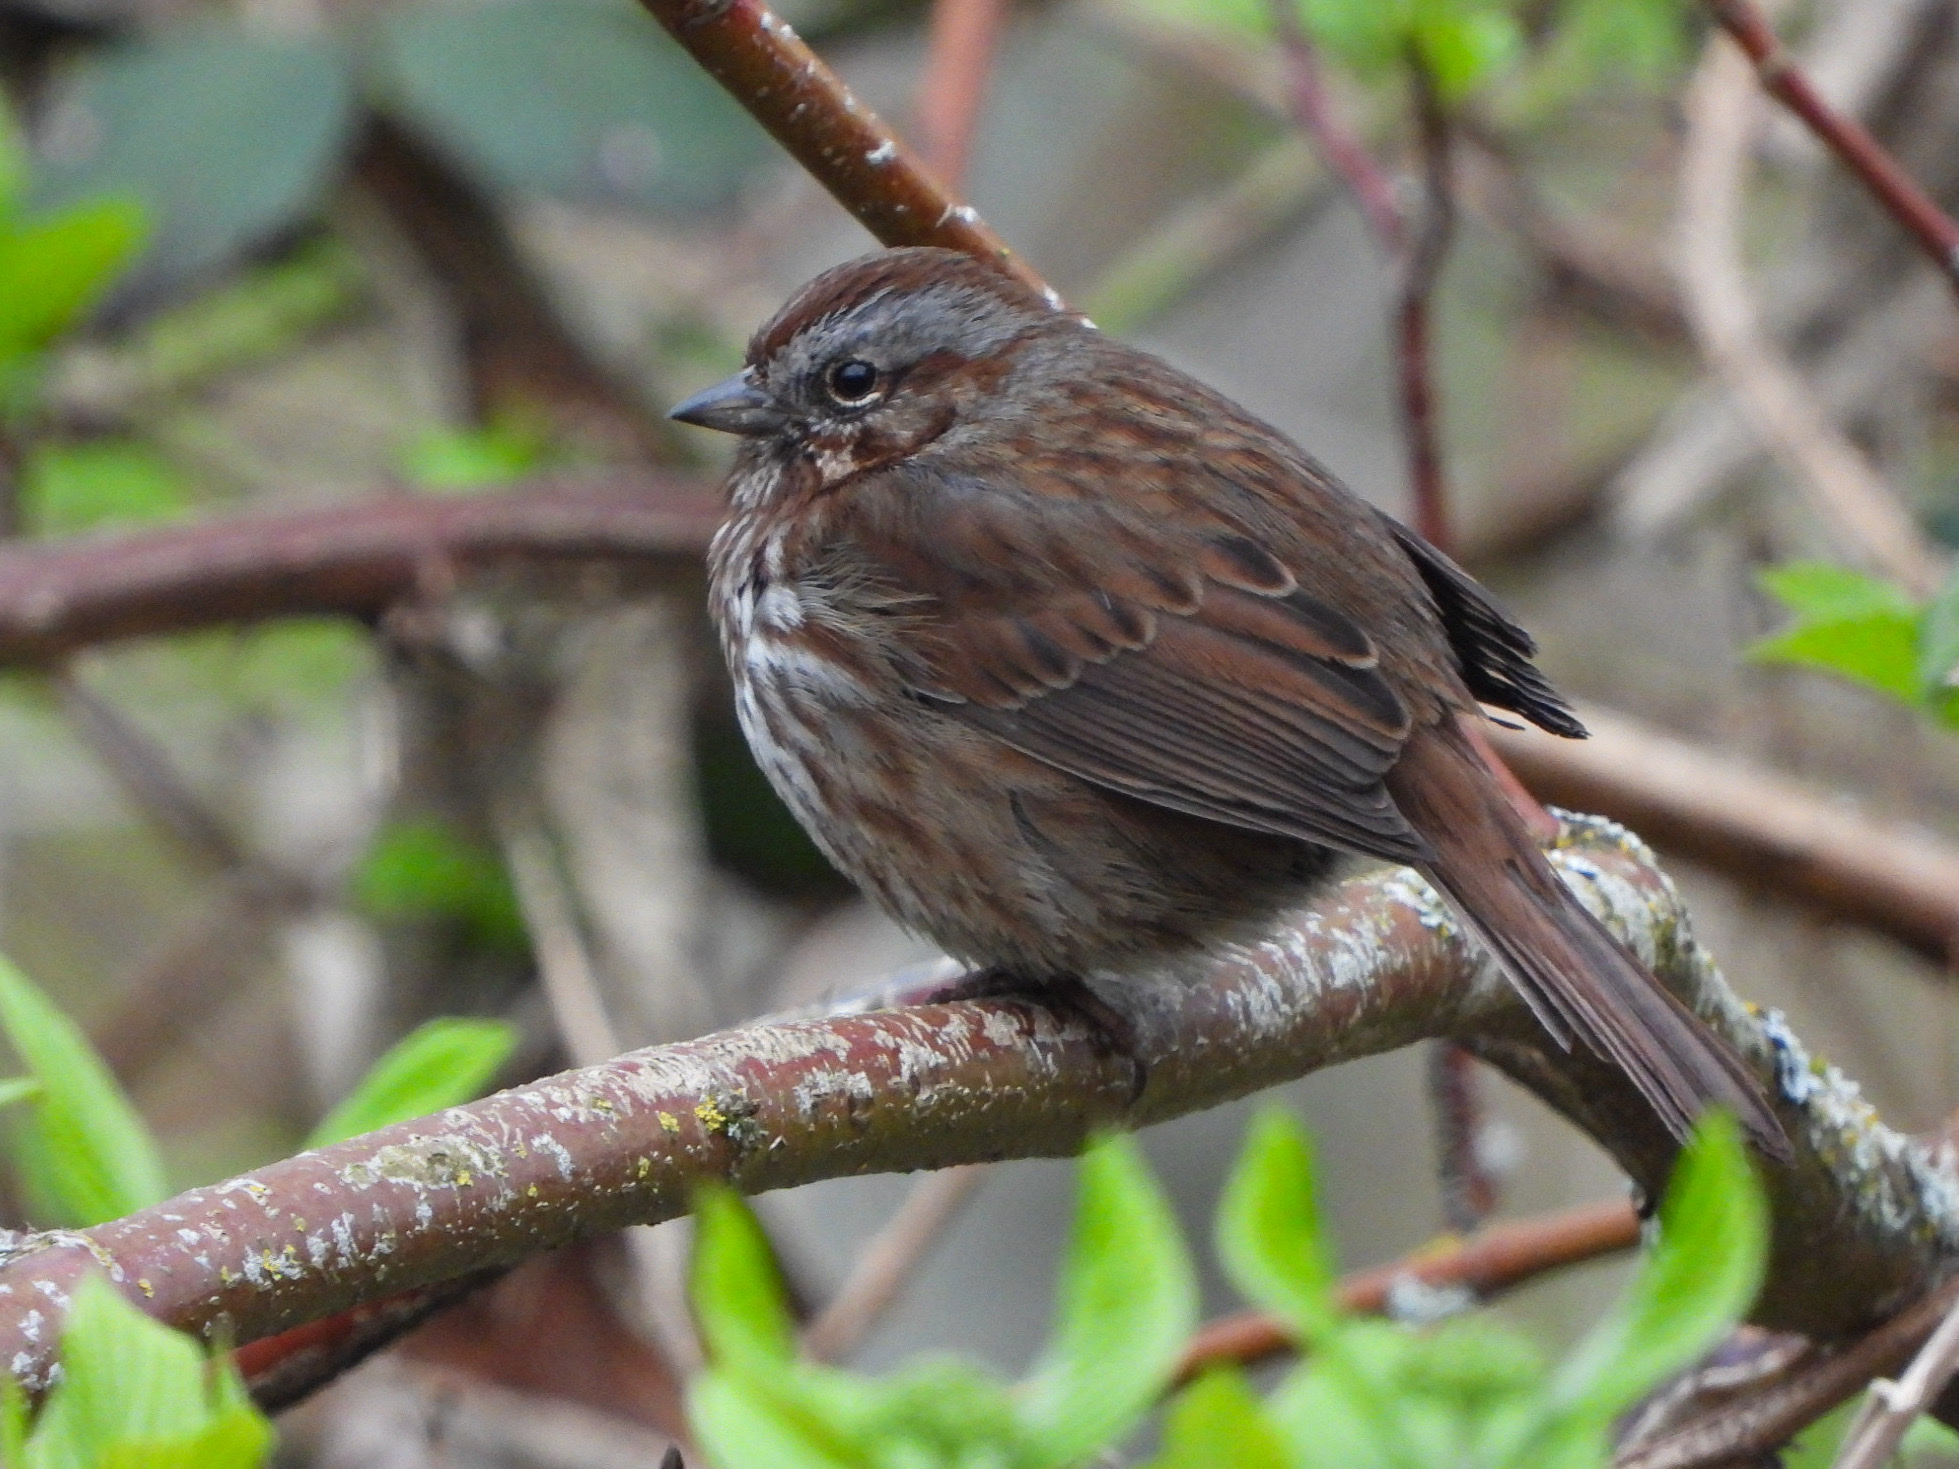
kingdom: Animalia
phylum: Chordata
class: Aves
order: Passeriformes
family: Passerellidae
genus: Melospiza
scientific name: Melospiza melodia
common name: Song sparrow
